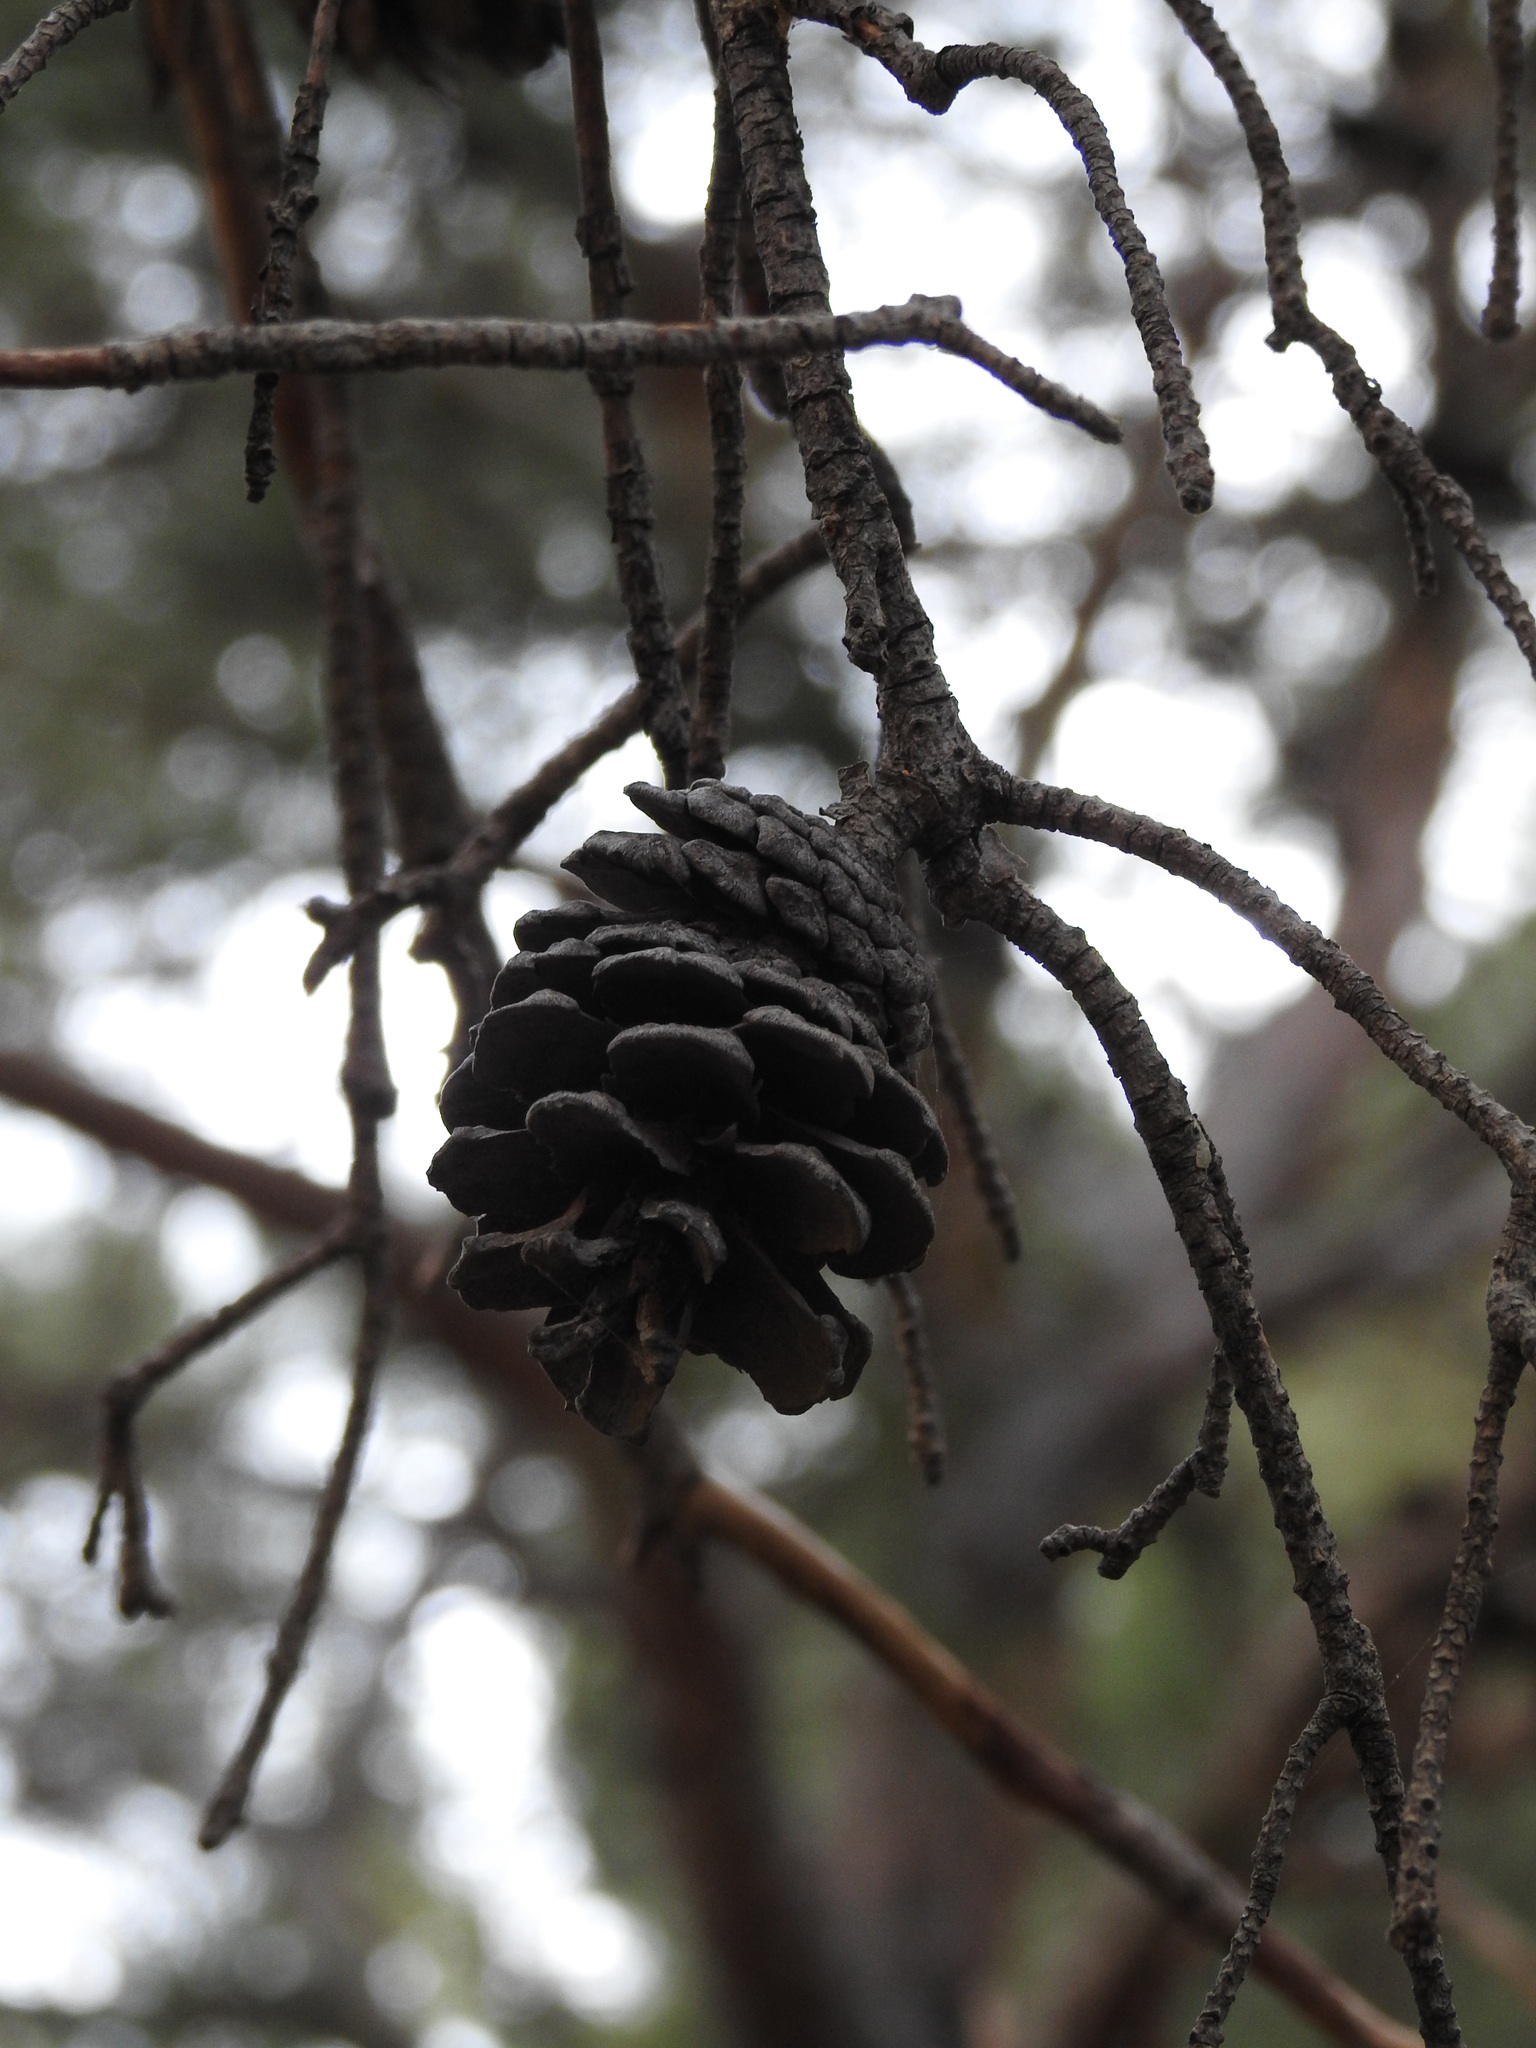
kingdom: Plantae
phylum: Tracheophyta
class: Pinopsida
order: Pinales
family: Pinaceae
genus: Pinus
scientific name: Pinus brutia
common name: Turkish pine
